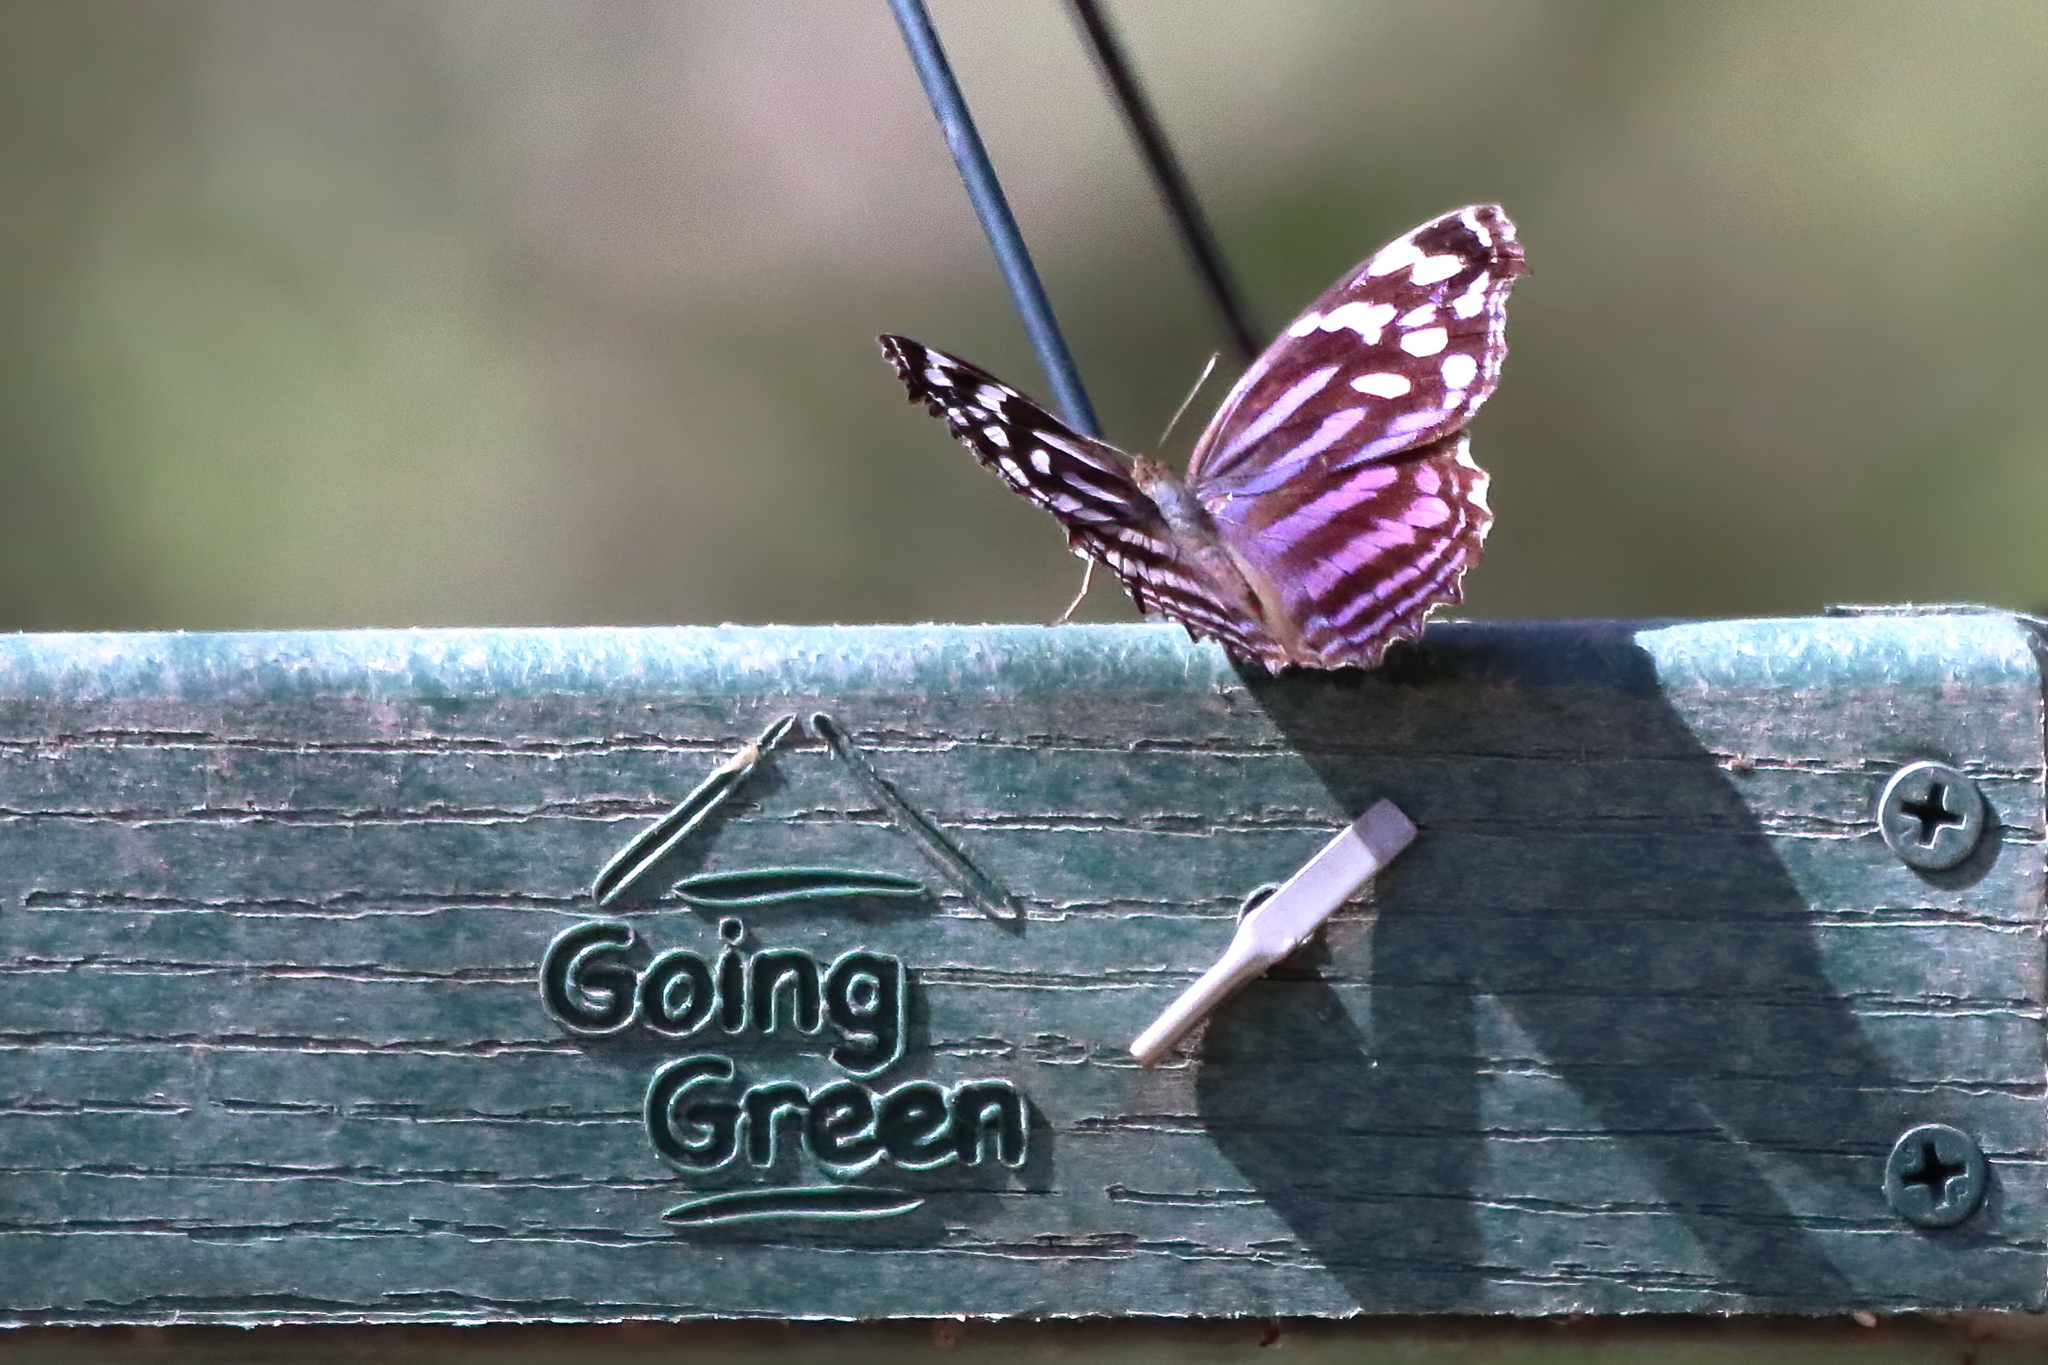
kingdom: Animalia
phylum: Arthropoda
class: Insecta
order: Lepidoptera
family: Nymphalidae
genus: Myscelia
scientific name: Myscelia ethusa
